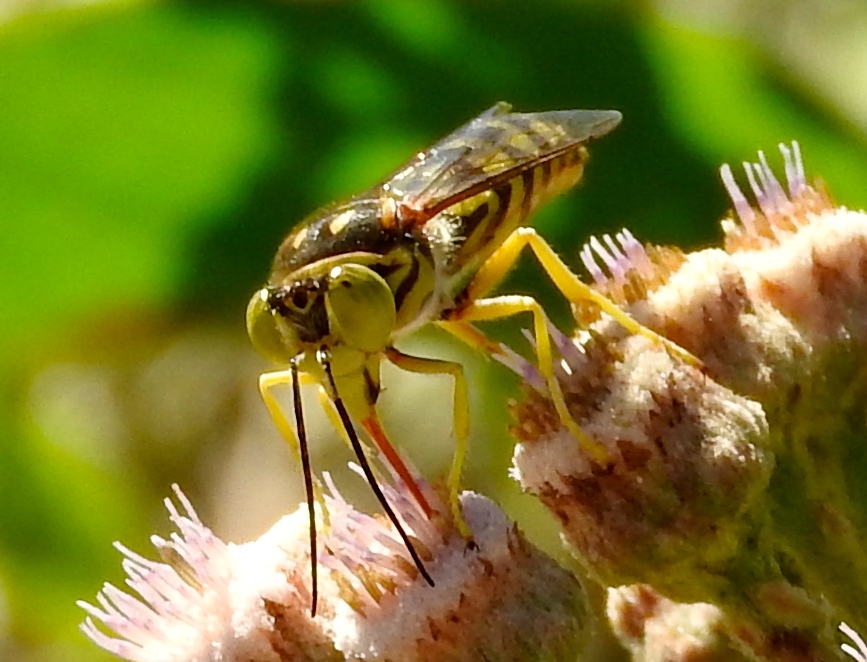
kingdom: Animalia
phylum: Arthropoda
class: Insecta
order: Hymenoptera
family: Crabronidae
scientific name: Crabronidae
